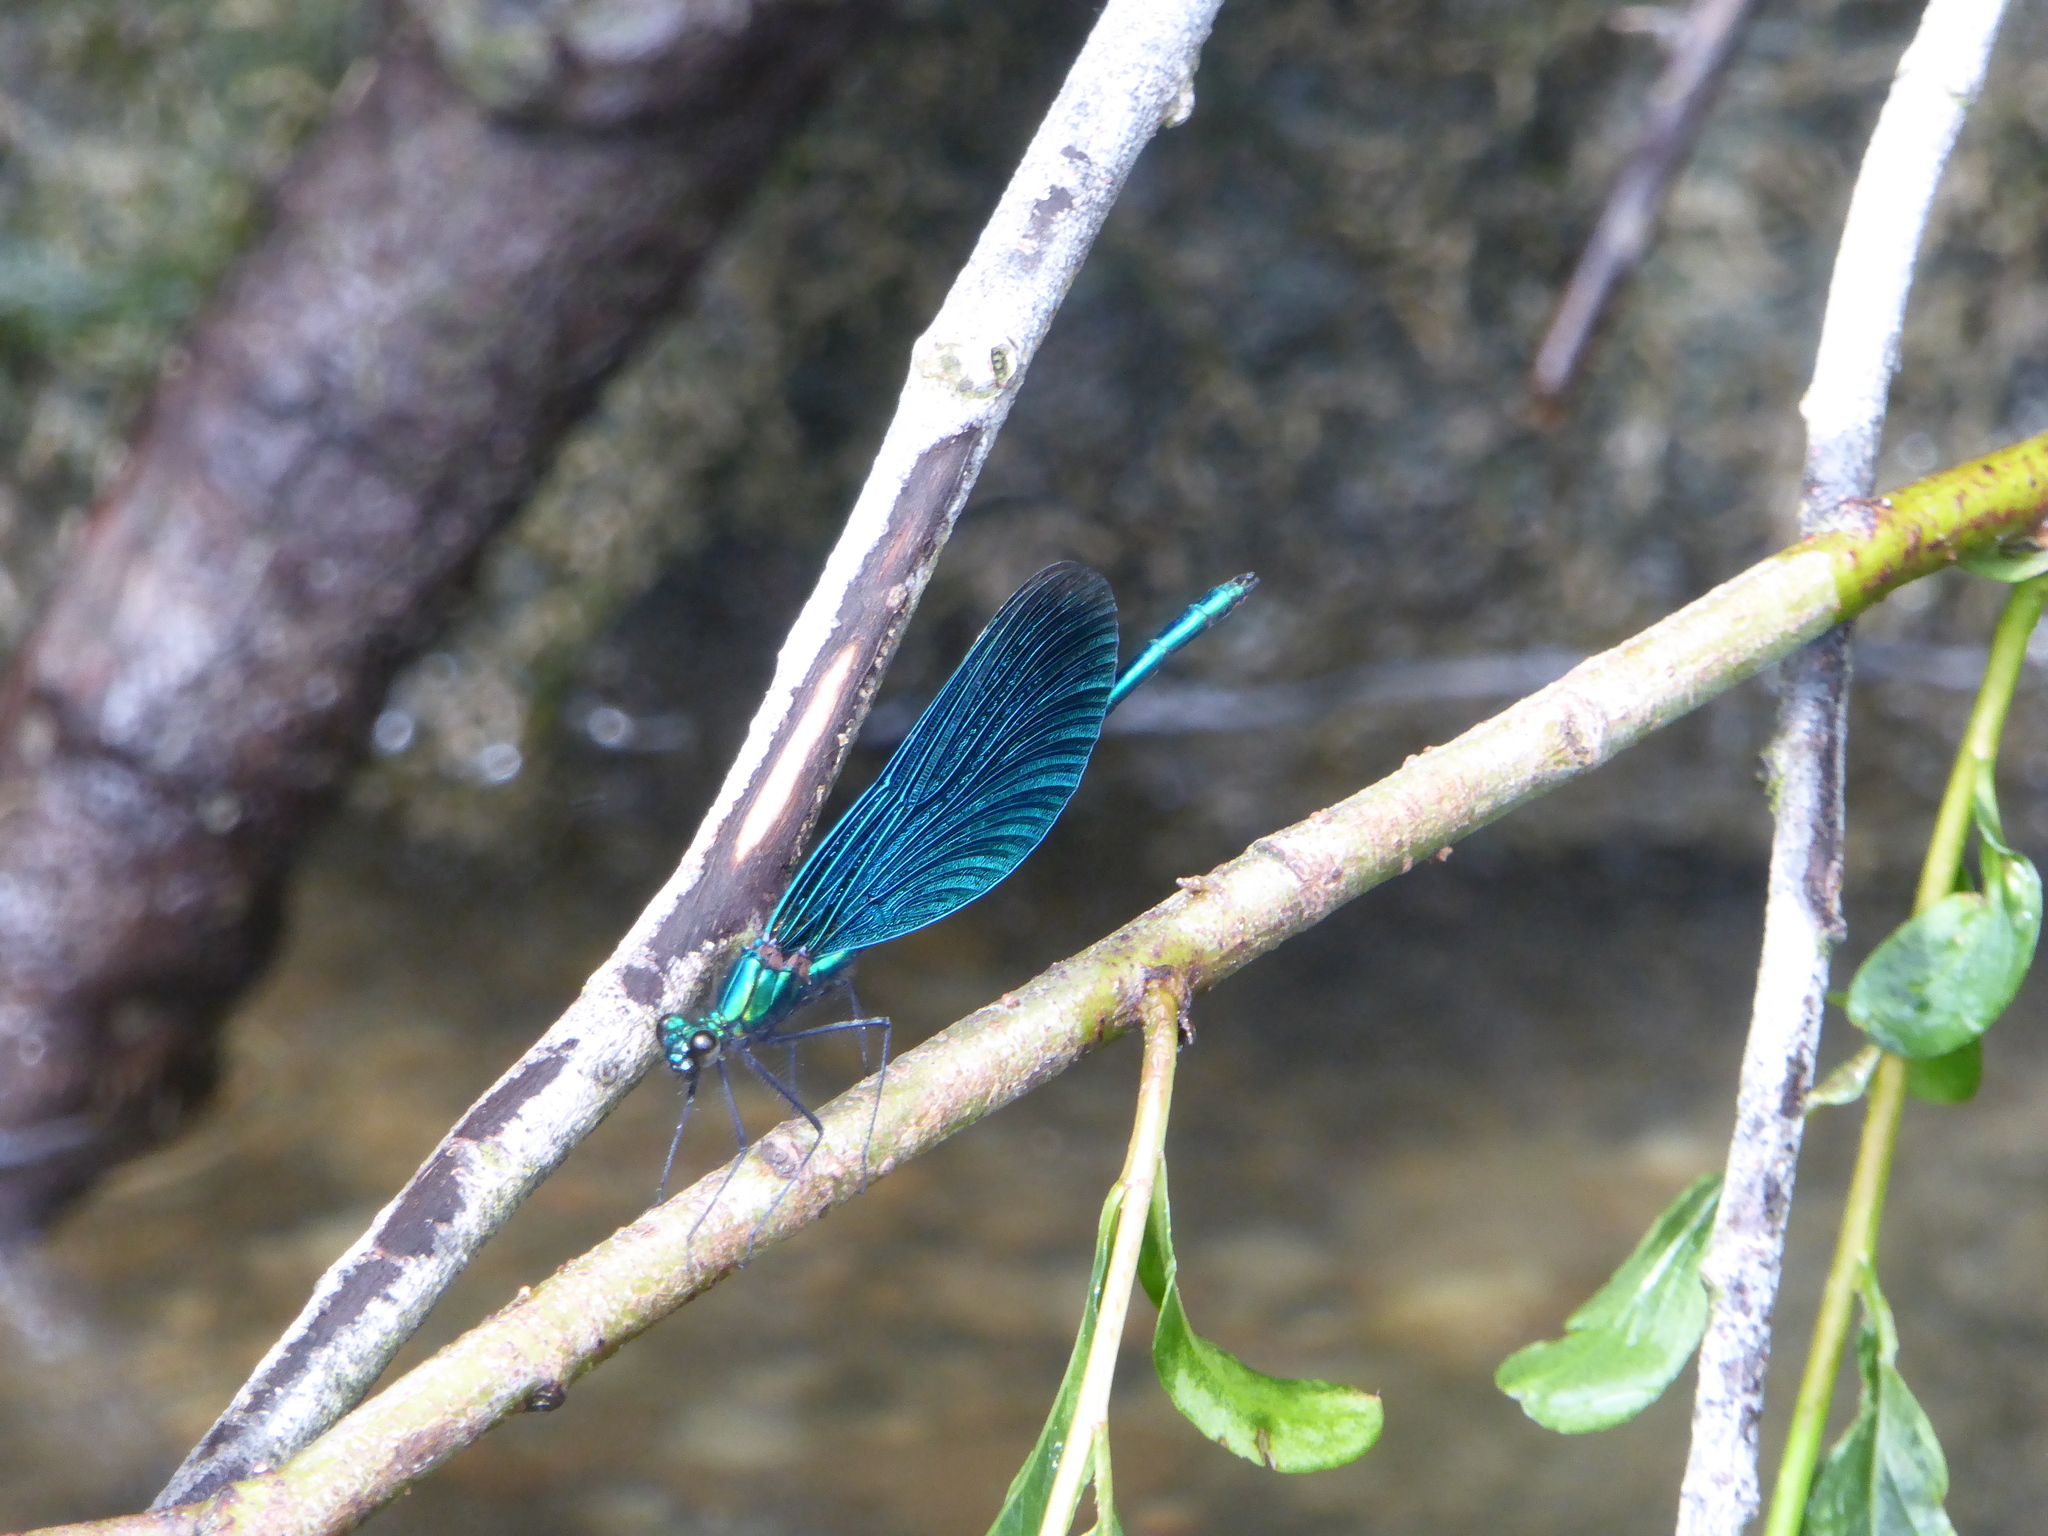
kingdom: Animalia
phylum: Arthropoda
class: Insecta
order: Odonata
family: Calopterygidae
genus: Calopteryx
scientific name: Calopteryx virgo
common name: Beautiful demoiselle
